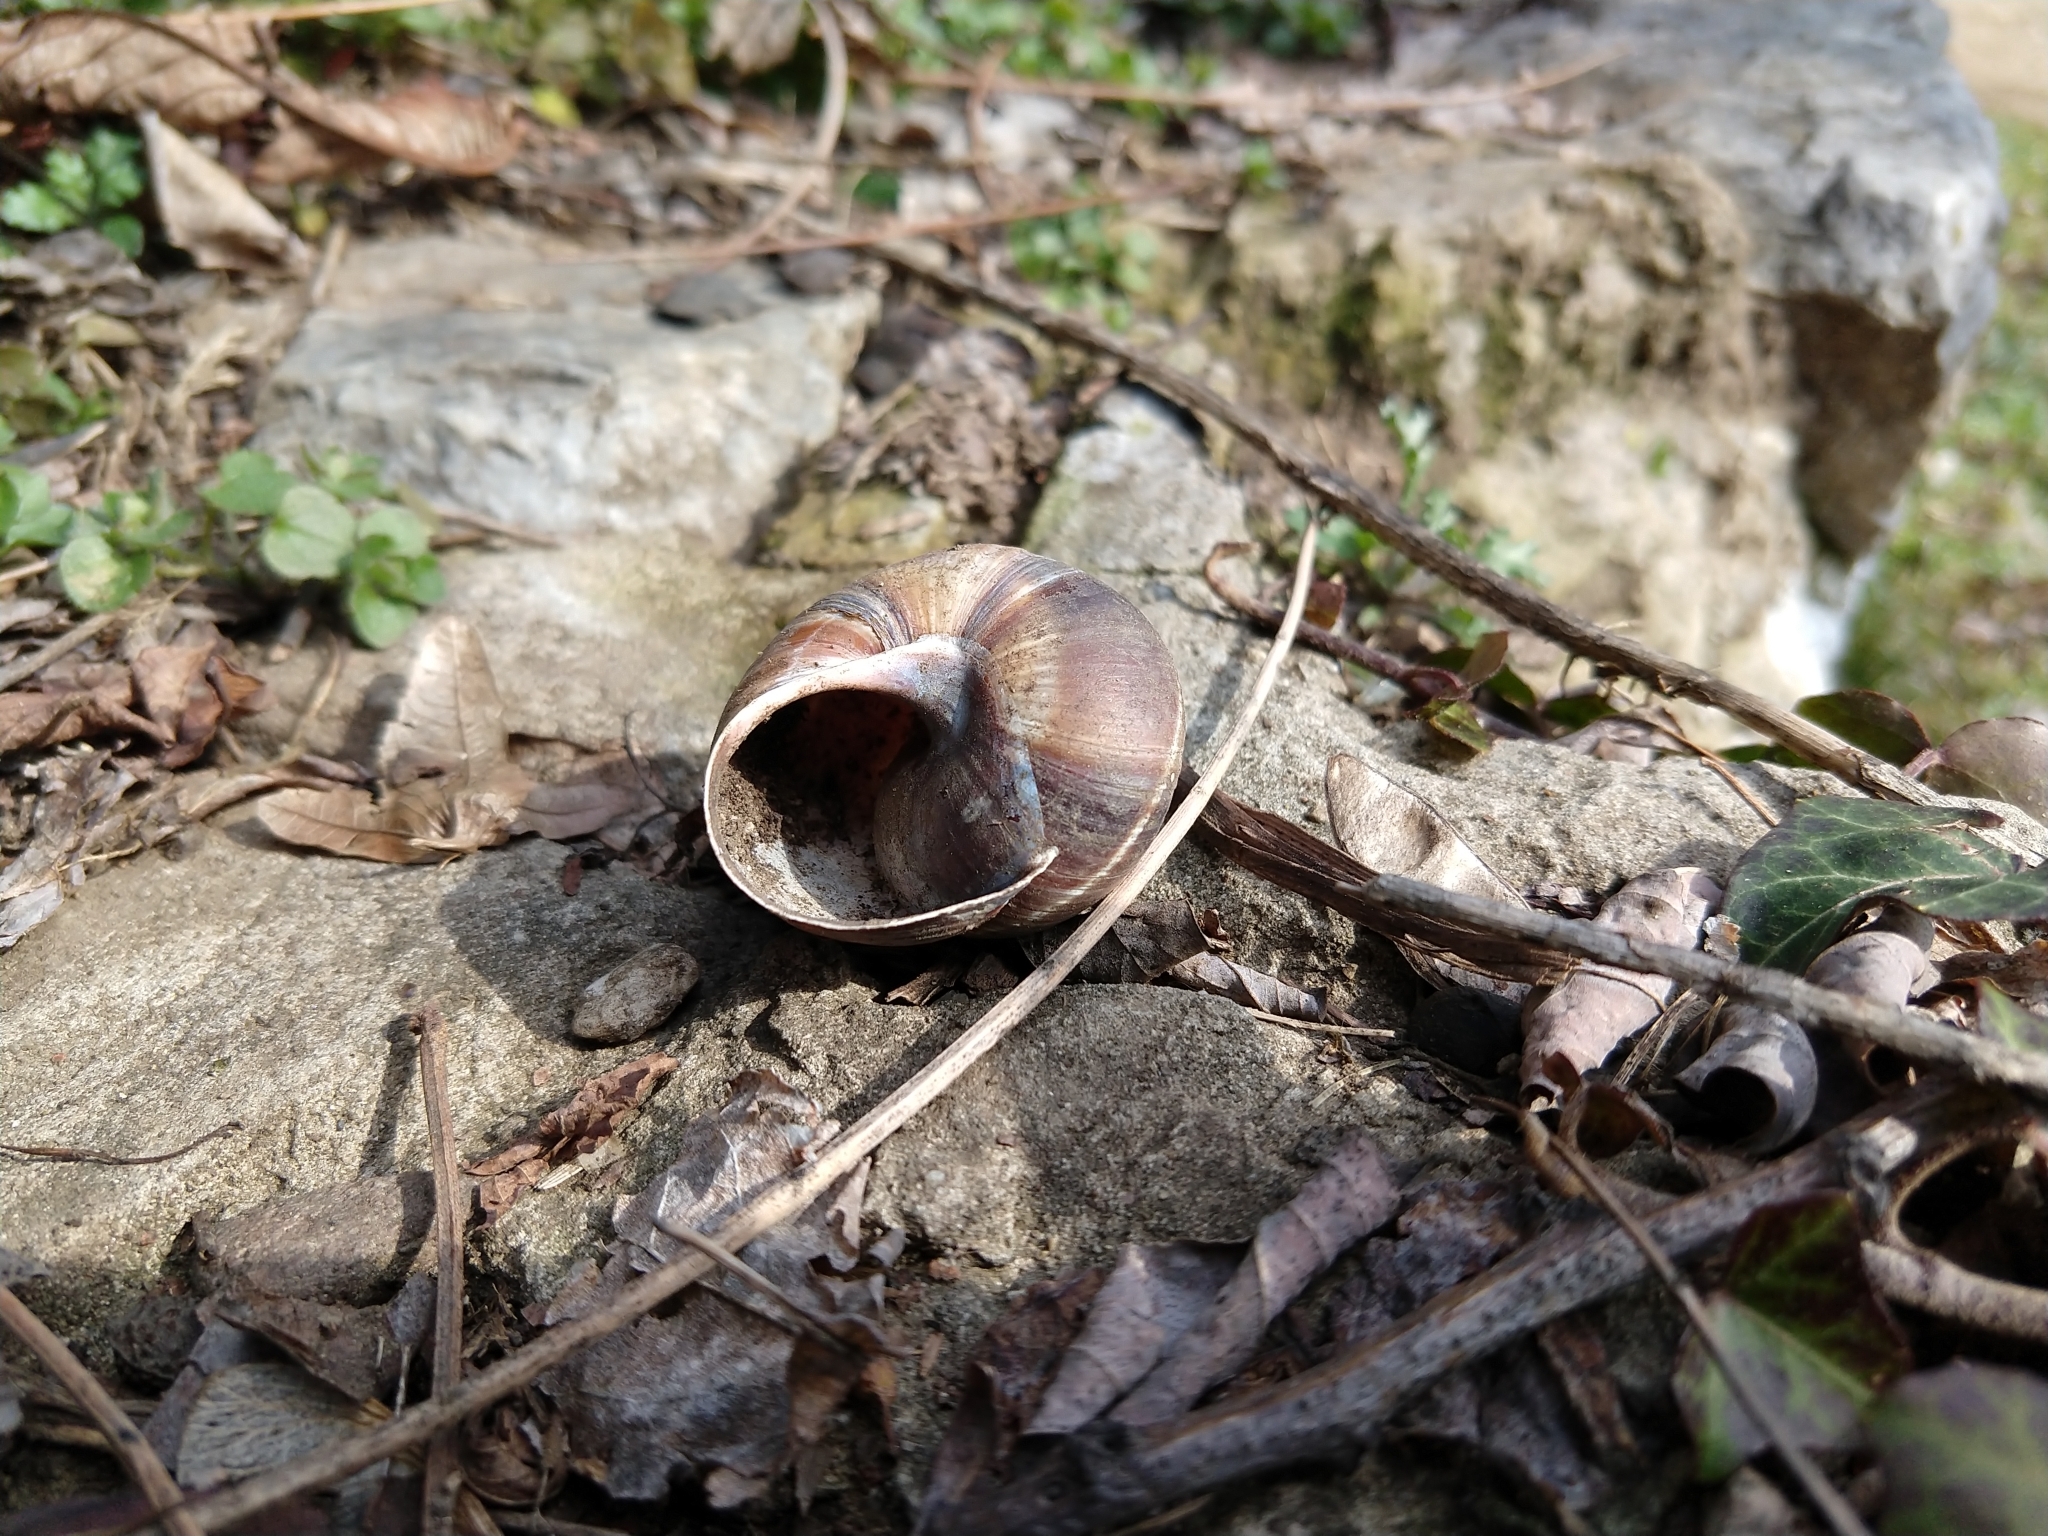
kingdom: Animalia
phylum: Mollusca
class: Gastropoda
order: Stylommatophora
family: Helicidae
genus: Helix
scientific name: Helix lucorum
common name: Turkish snail
